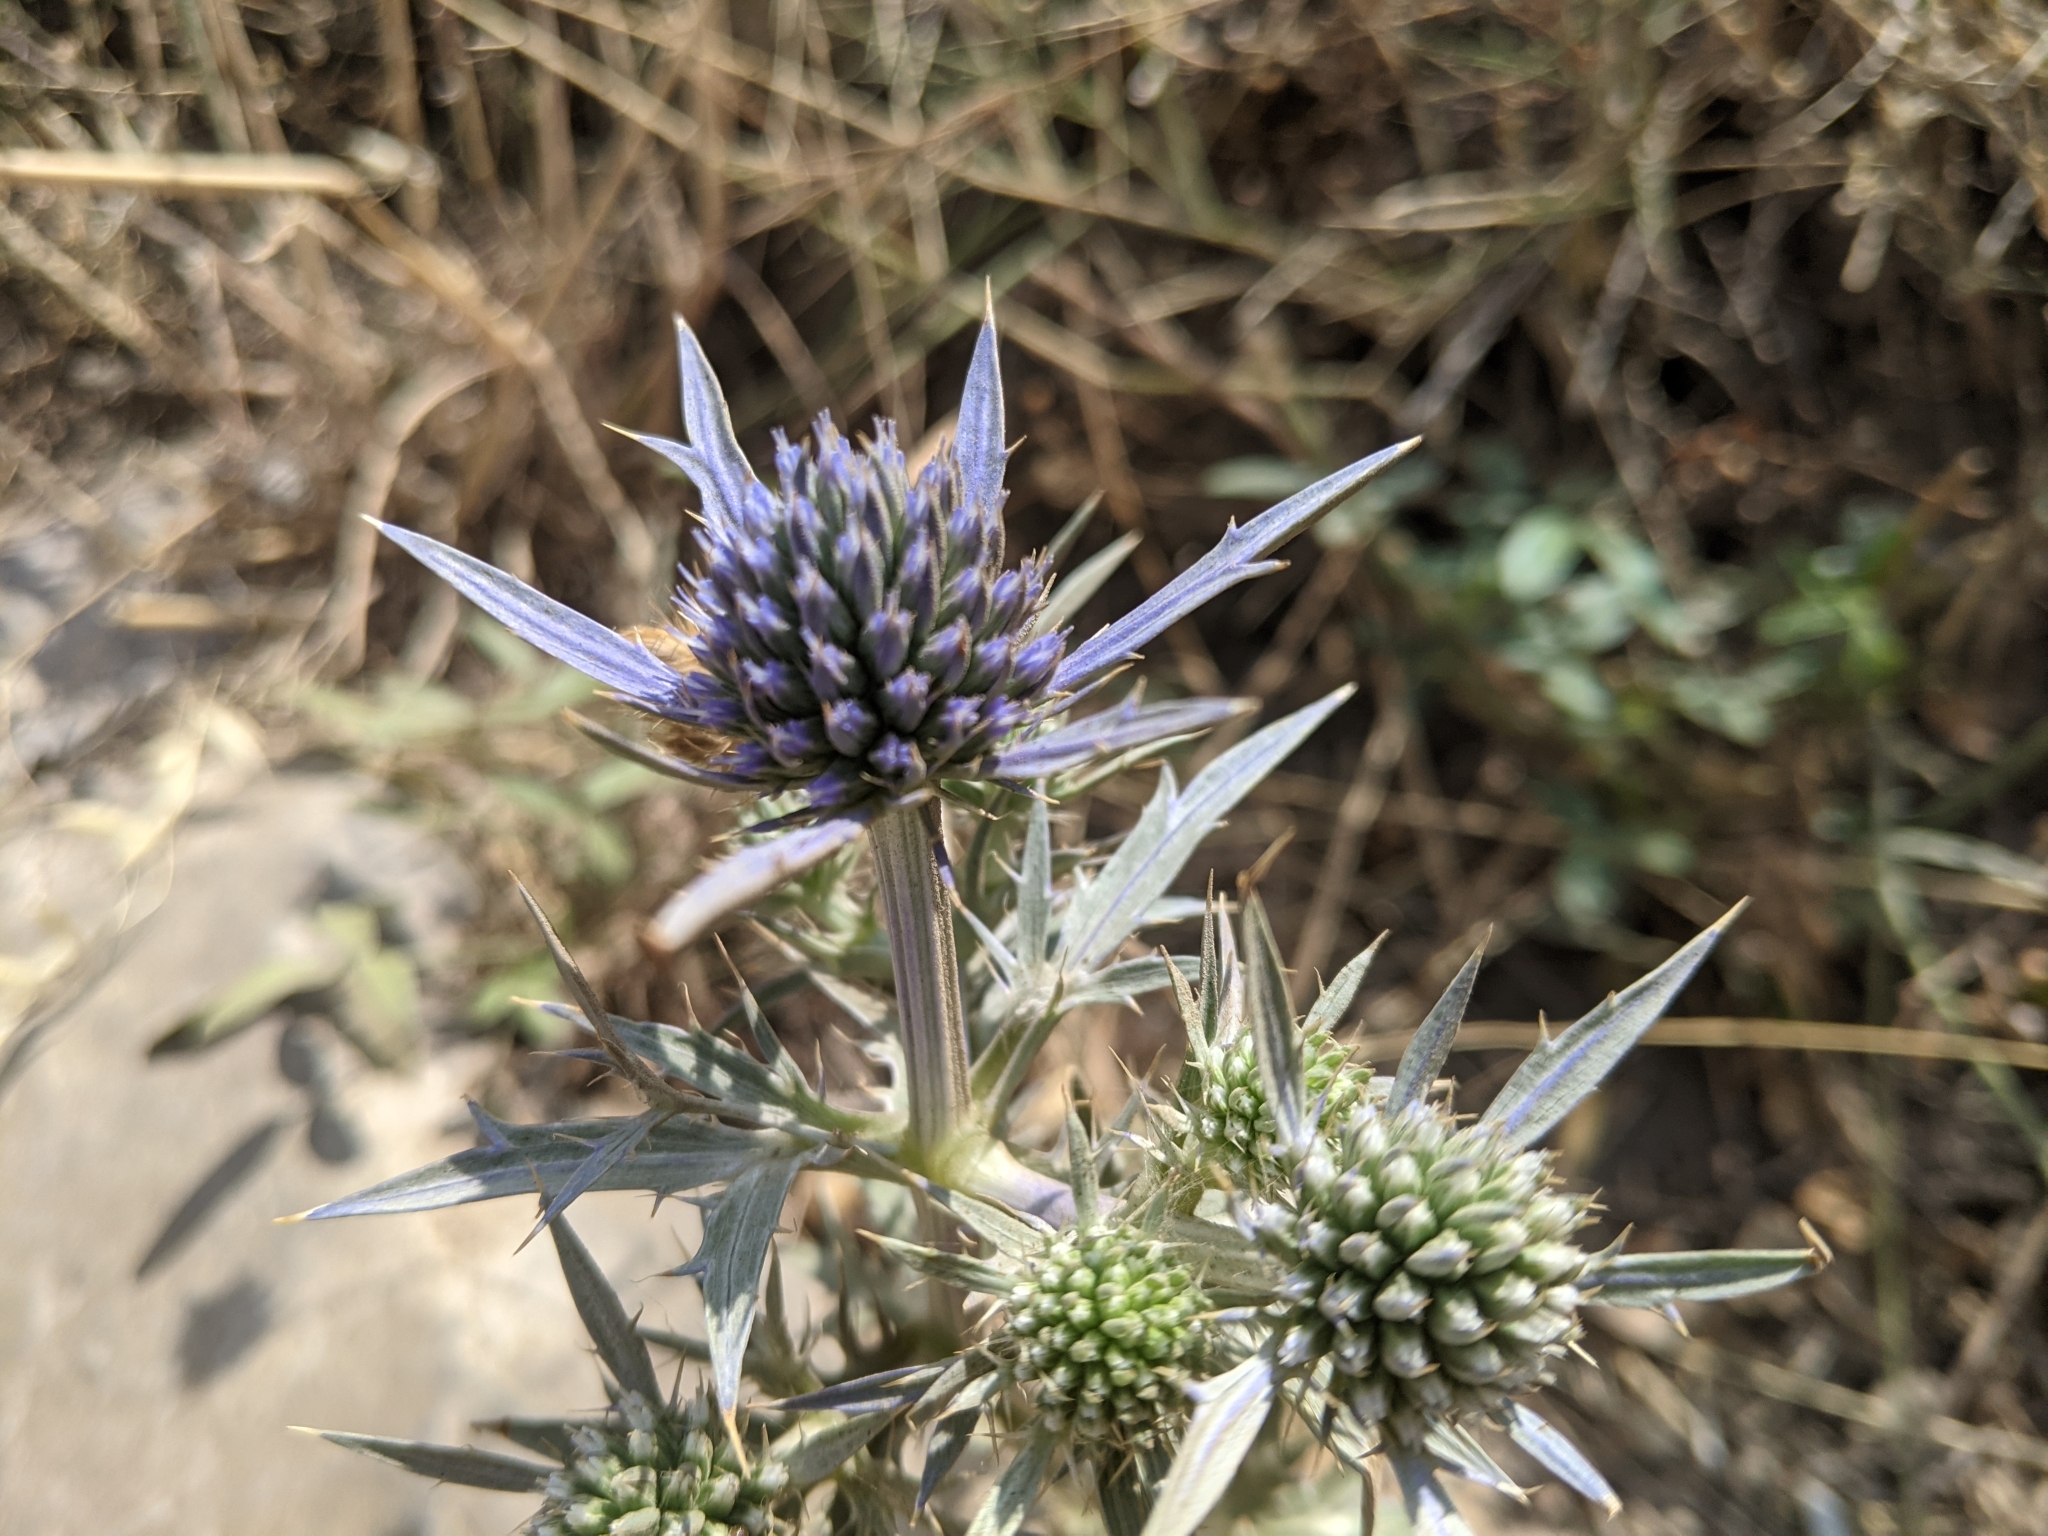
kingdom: Plantae
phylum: Tracheophyta
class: Magnoliopsida
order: Apiales
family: Apiaceae
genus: Eryngium
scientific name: Eryngium amethystinum
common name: Amethyst eryngo
